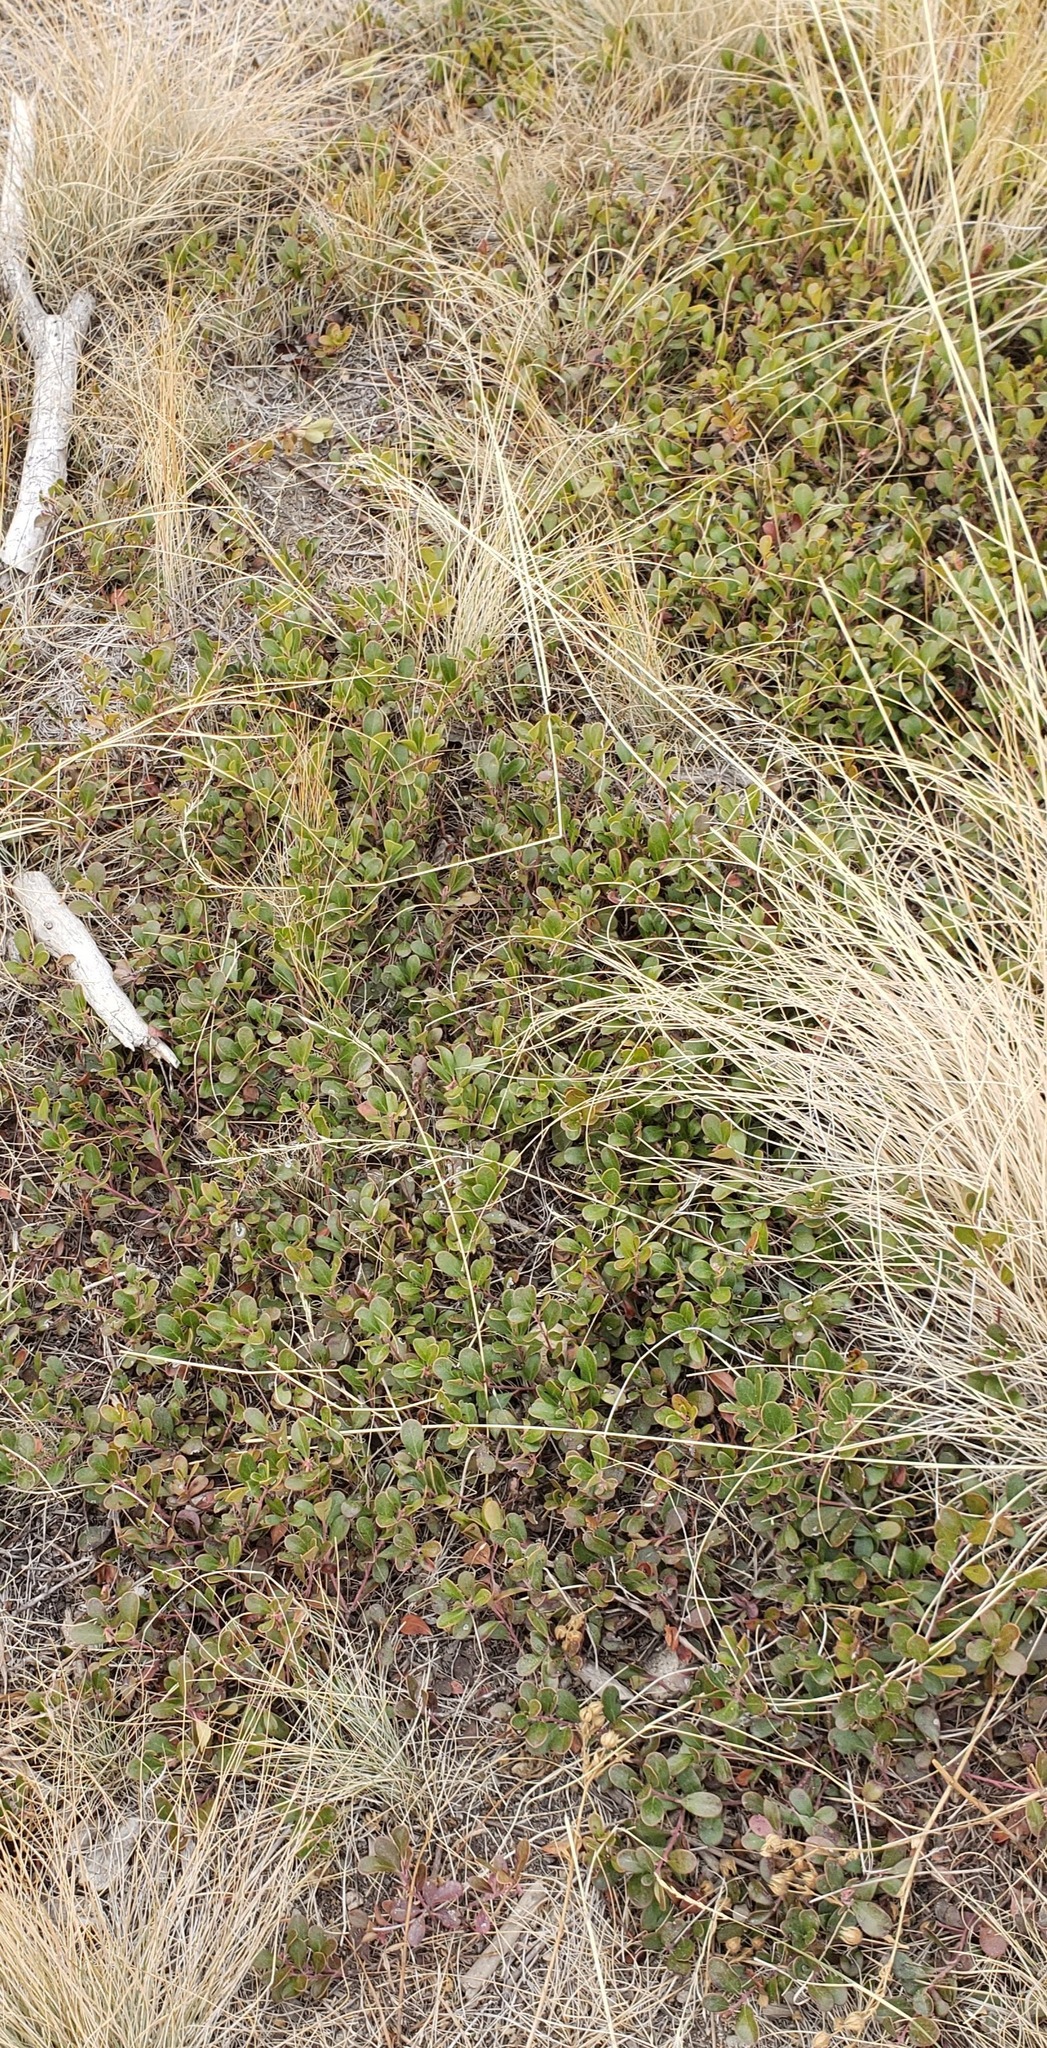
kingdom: Plantae
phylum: Tracheophyta
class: Magnoliopsida
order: Ericales
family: Ericaceae
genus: Arctostaphylos
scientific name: Arctostaphylos uva-ursi
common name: Bearberry
